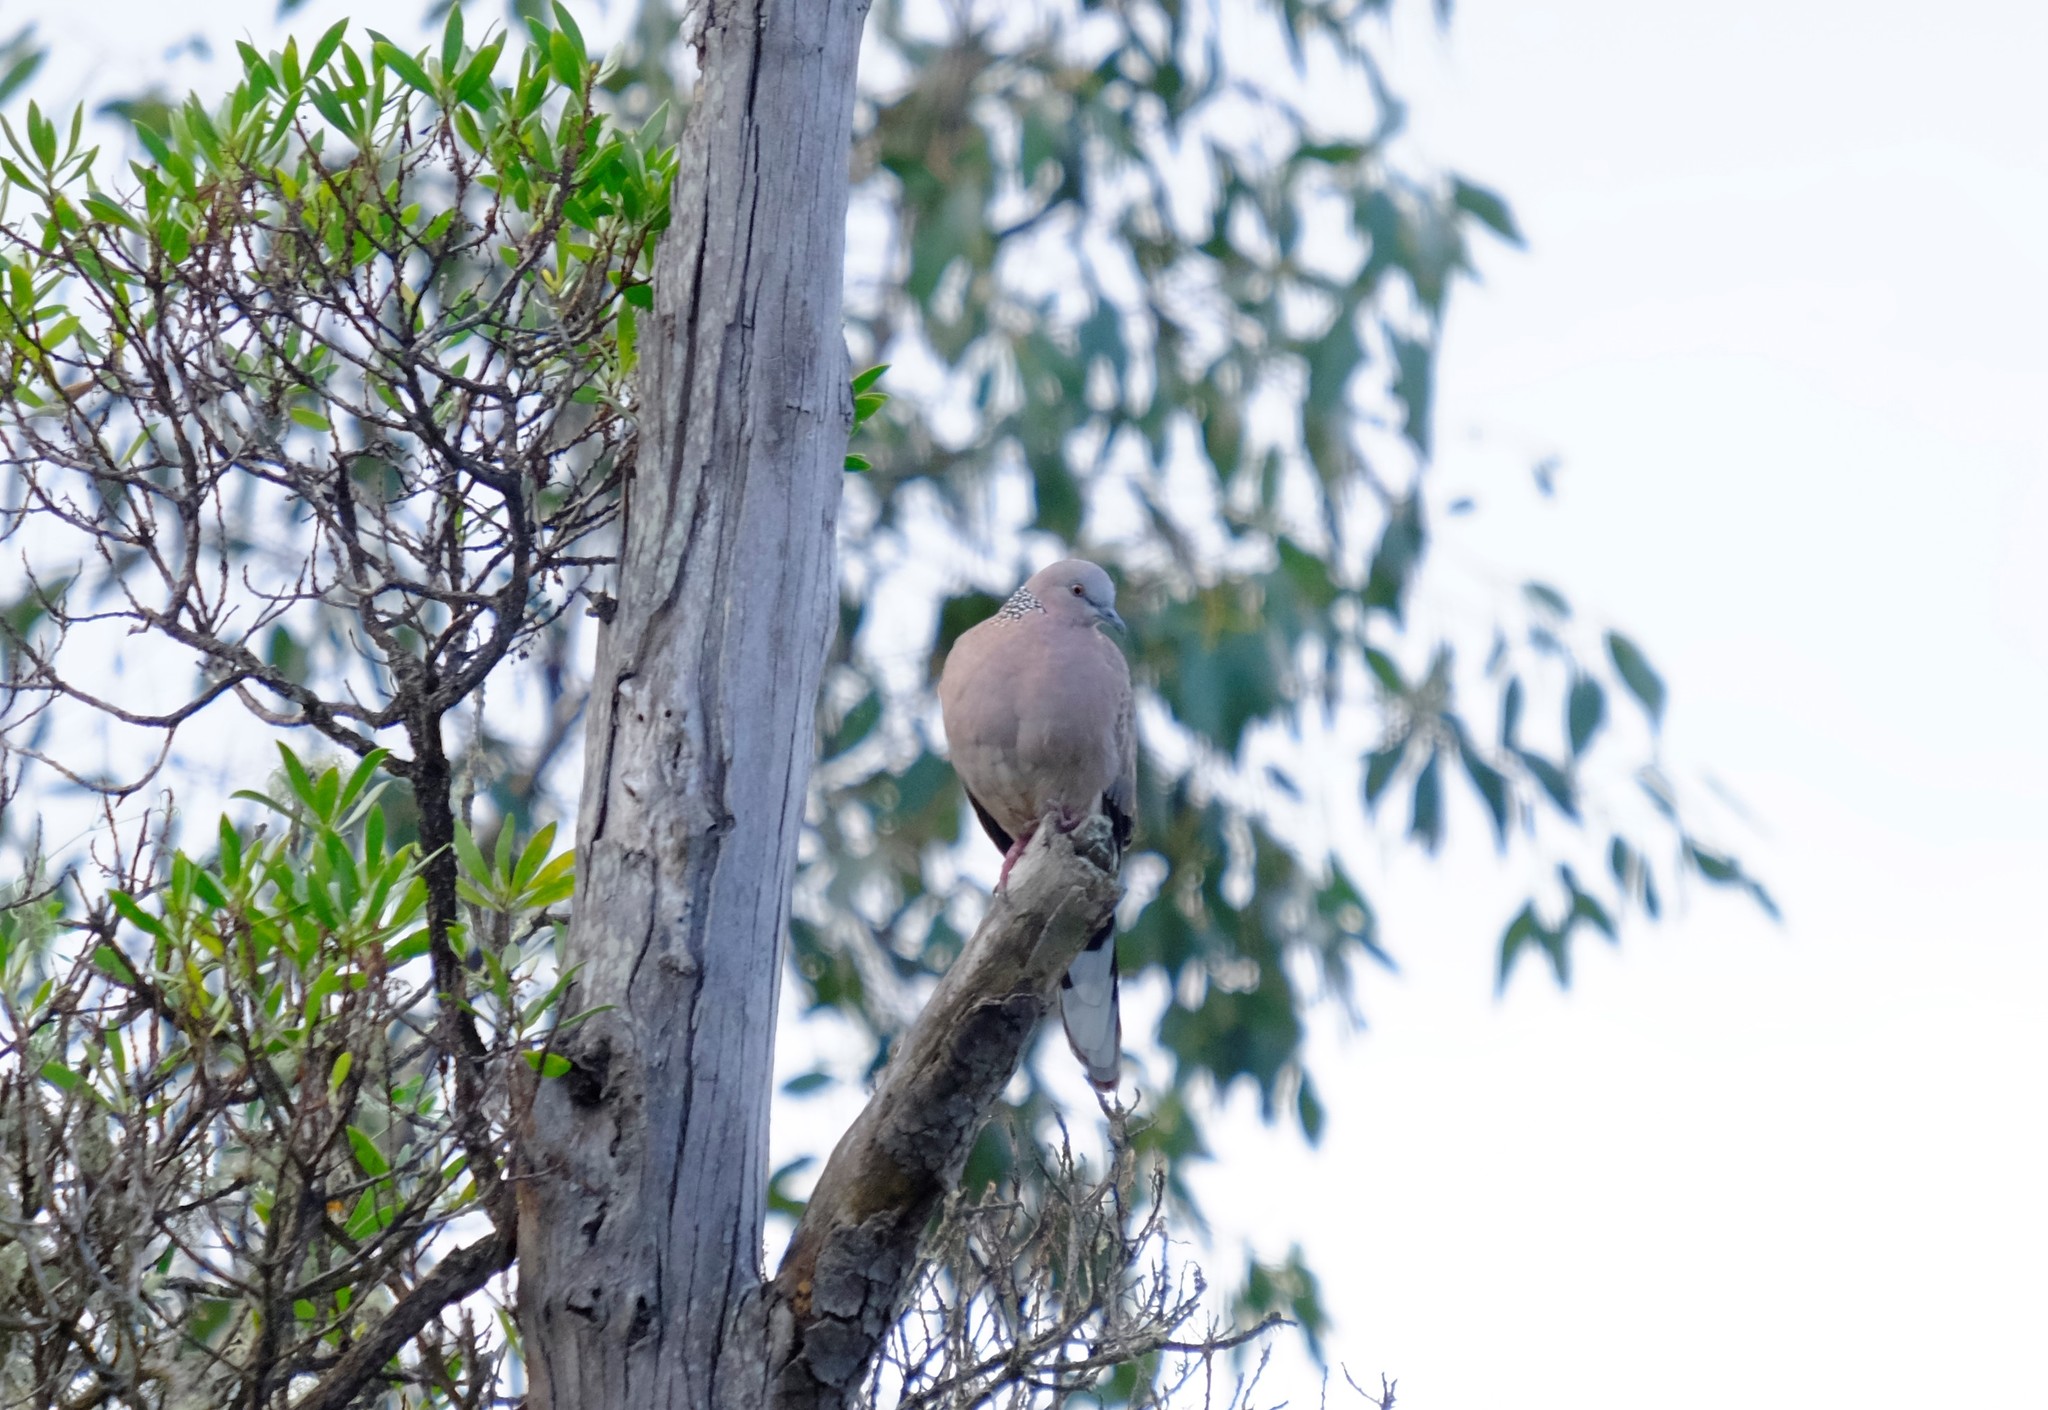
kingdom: Animalia
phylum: Chordata
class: Aves
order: Columbiformes
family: Columbidae
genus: Spilopelia
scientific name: Spilopelia chinensis
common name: Spotted dove
